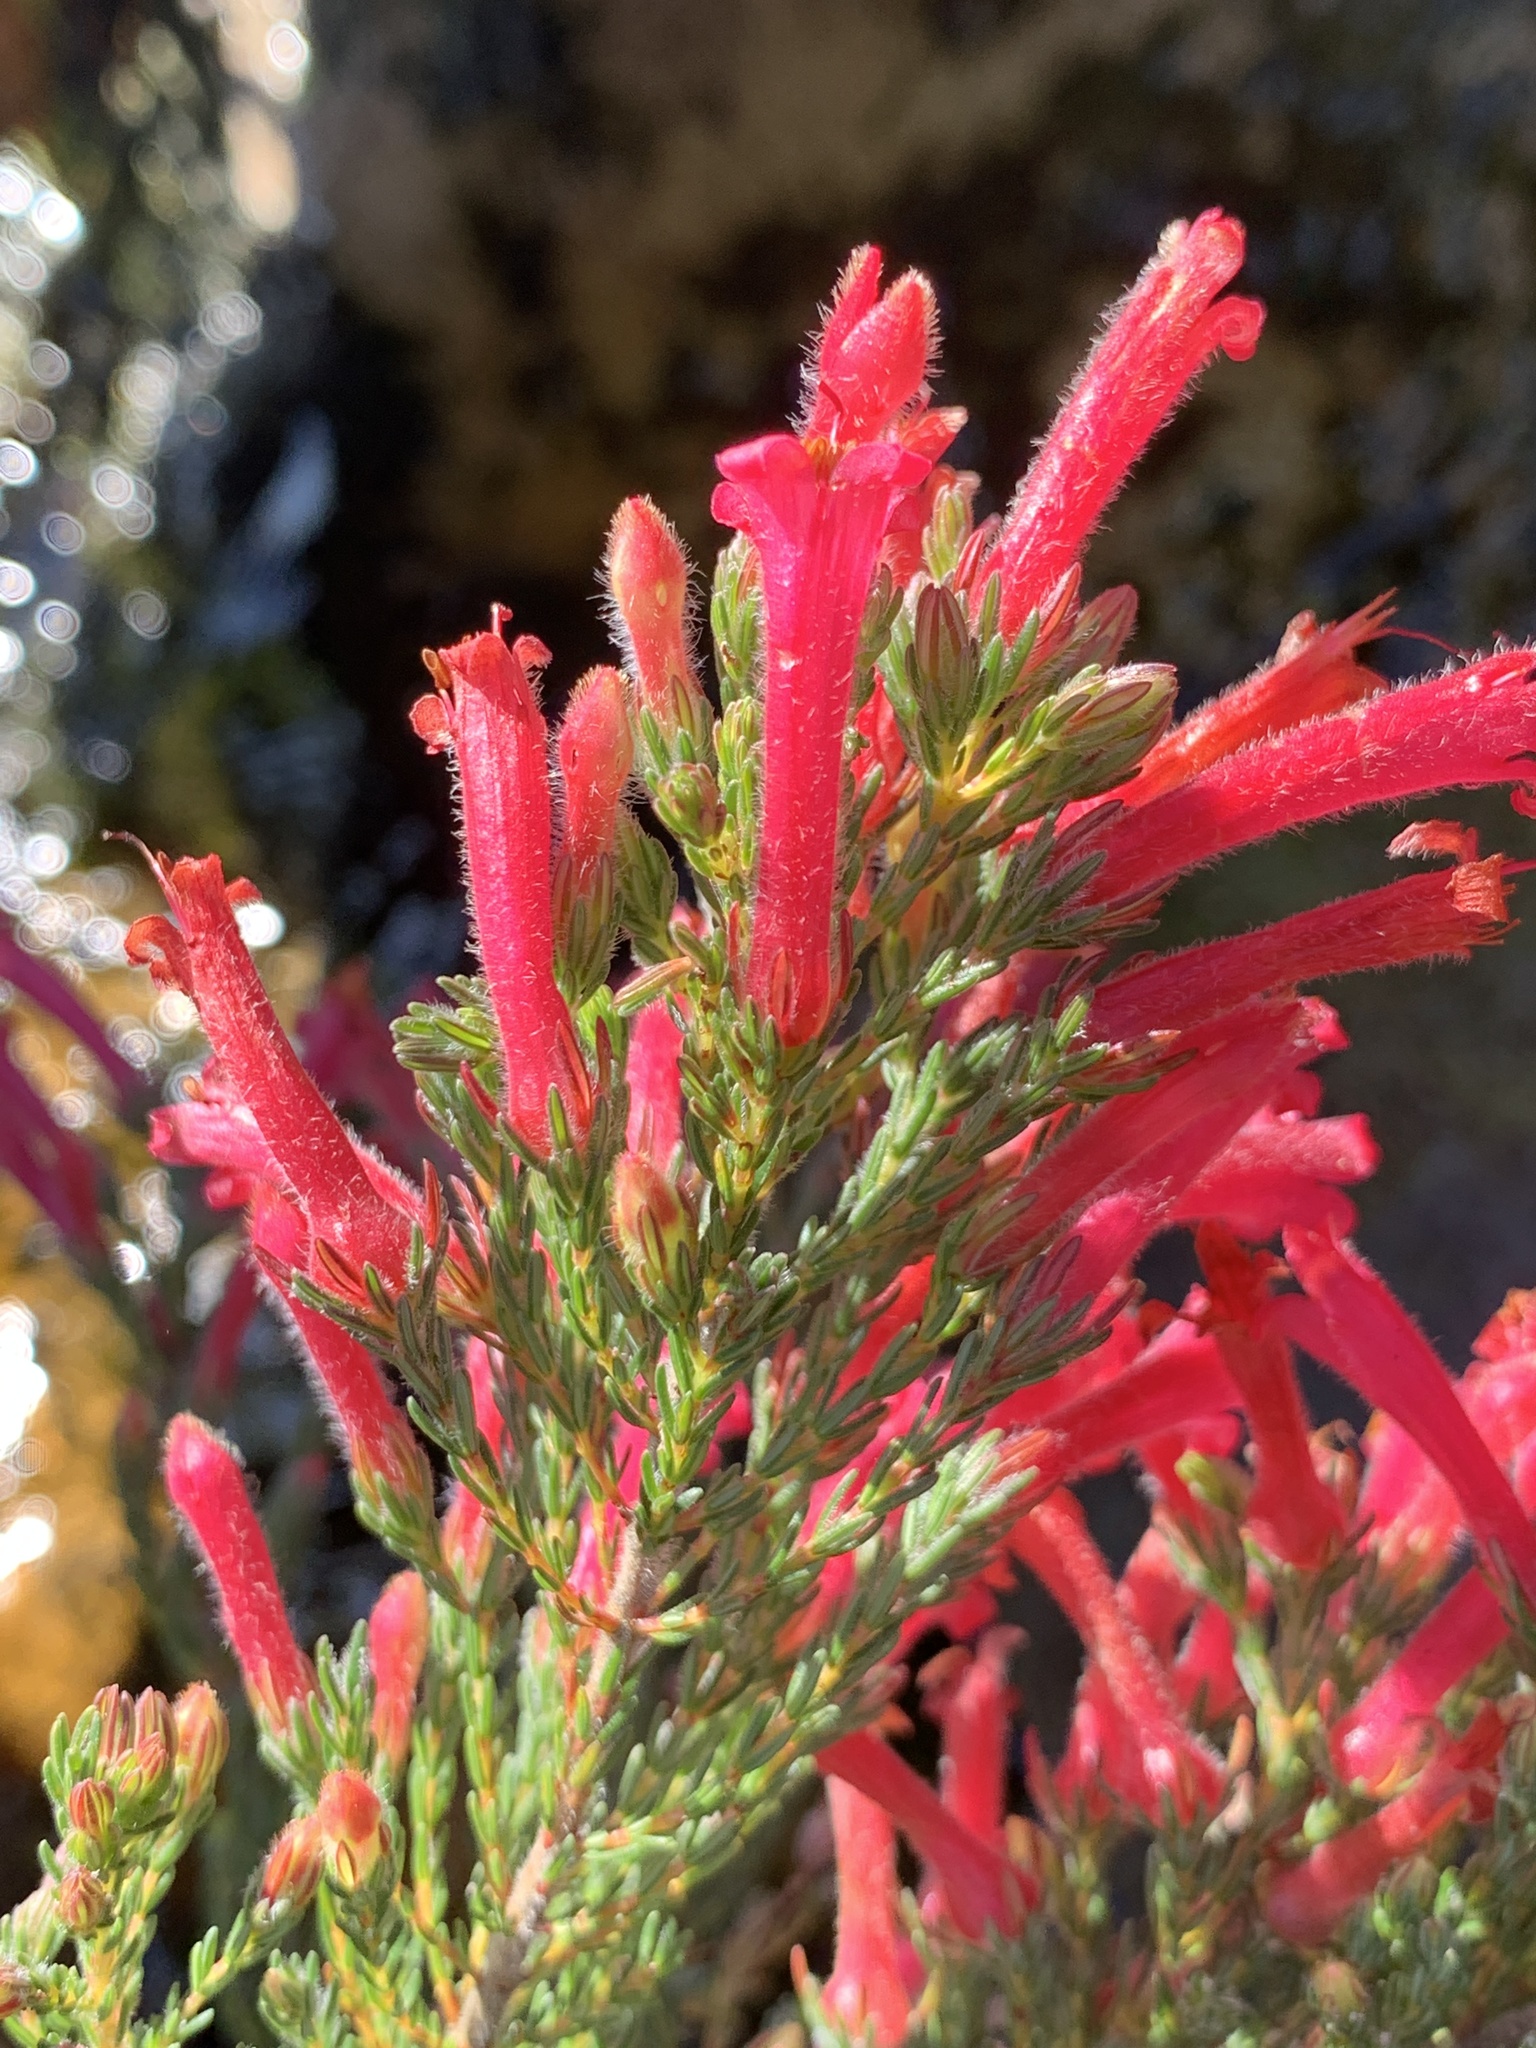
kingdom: Plantae
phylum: Tracheophyta
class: Magnoliopsida
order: Ericales
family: Ericaceae
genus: Erica
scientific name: Erica curviflora
